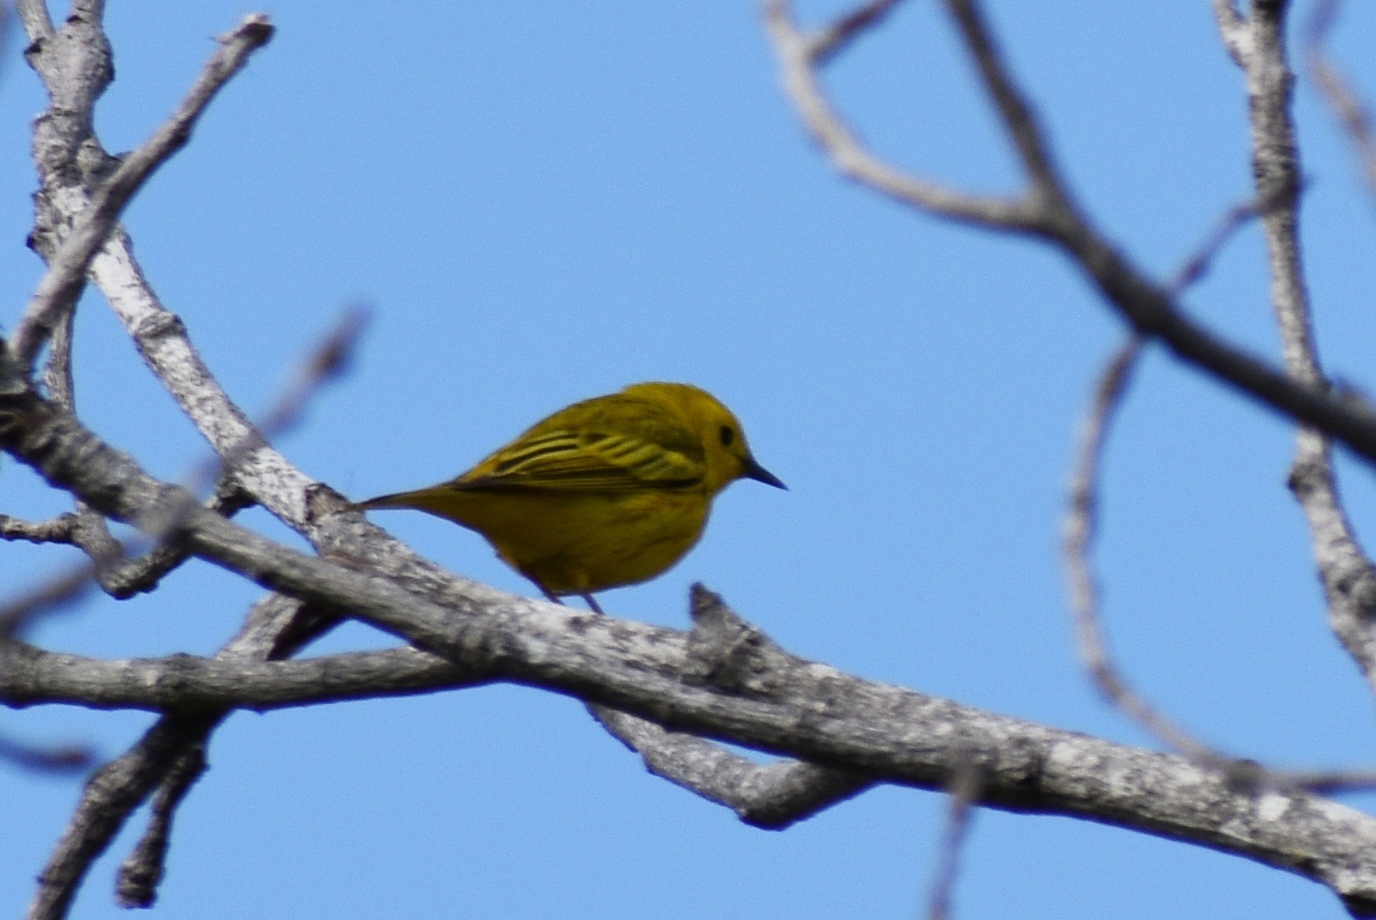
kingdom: Animalia
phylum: Chordata
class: Aves
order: Passeriformes
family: Parulidae
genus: Setophaga
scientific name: Setophaga petechia
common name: Yellow warbler
